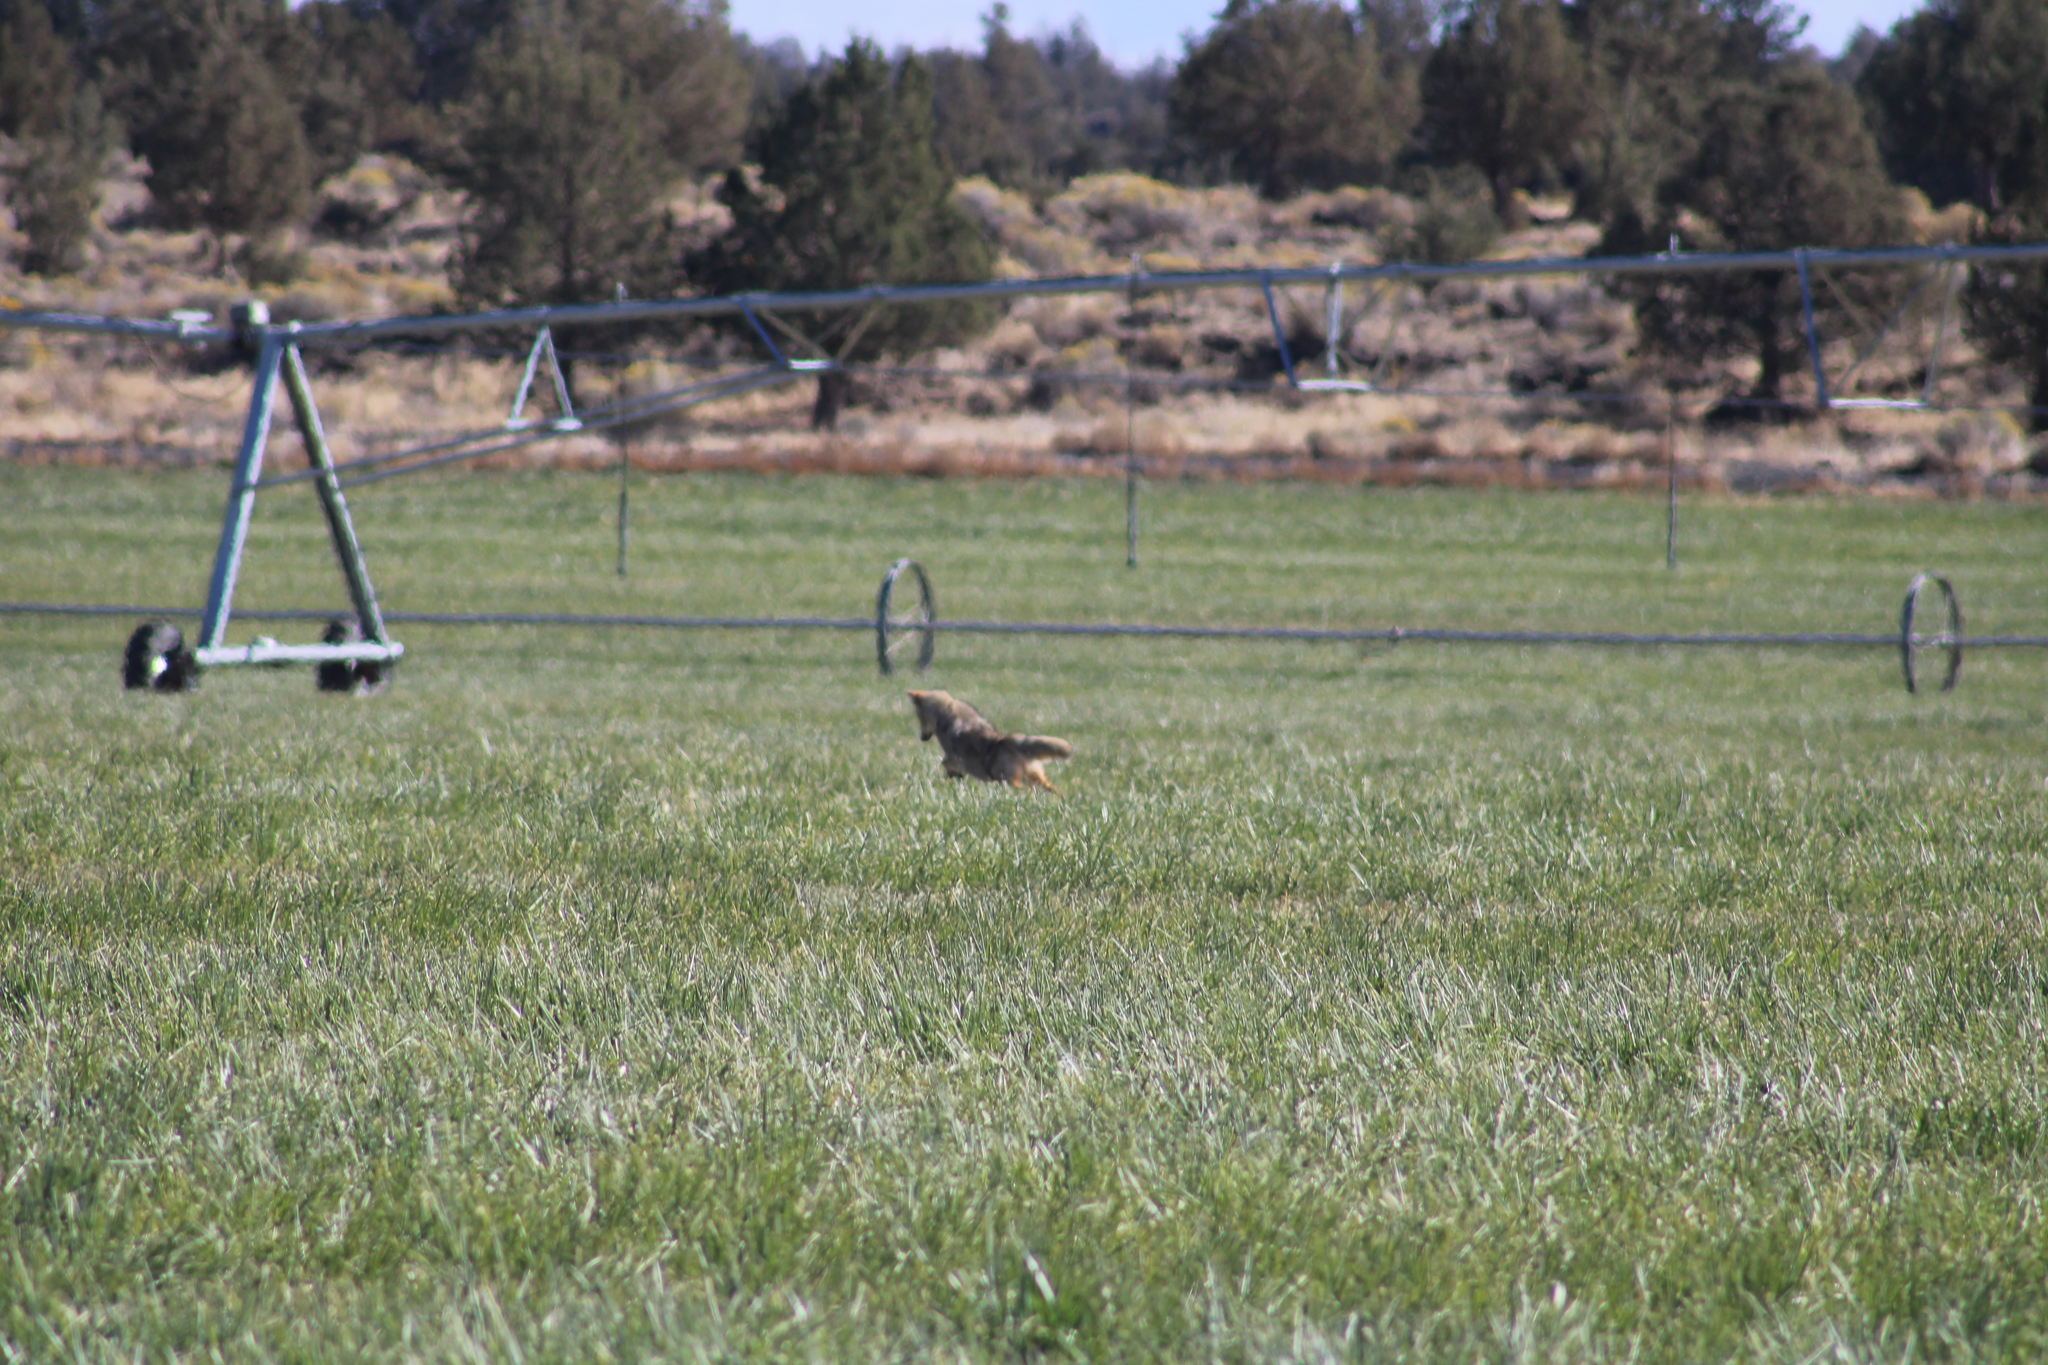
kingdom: Animalia
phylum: Chordata
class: Mammalia
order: Carnivora
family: Canidae
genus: Canis
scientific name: Canis latrans
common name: Coyote
